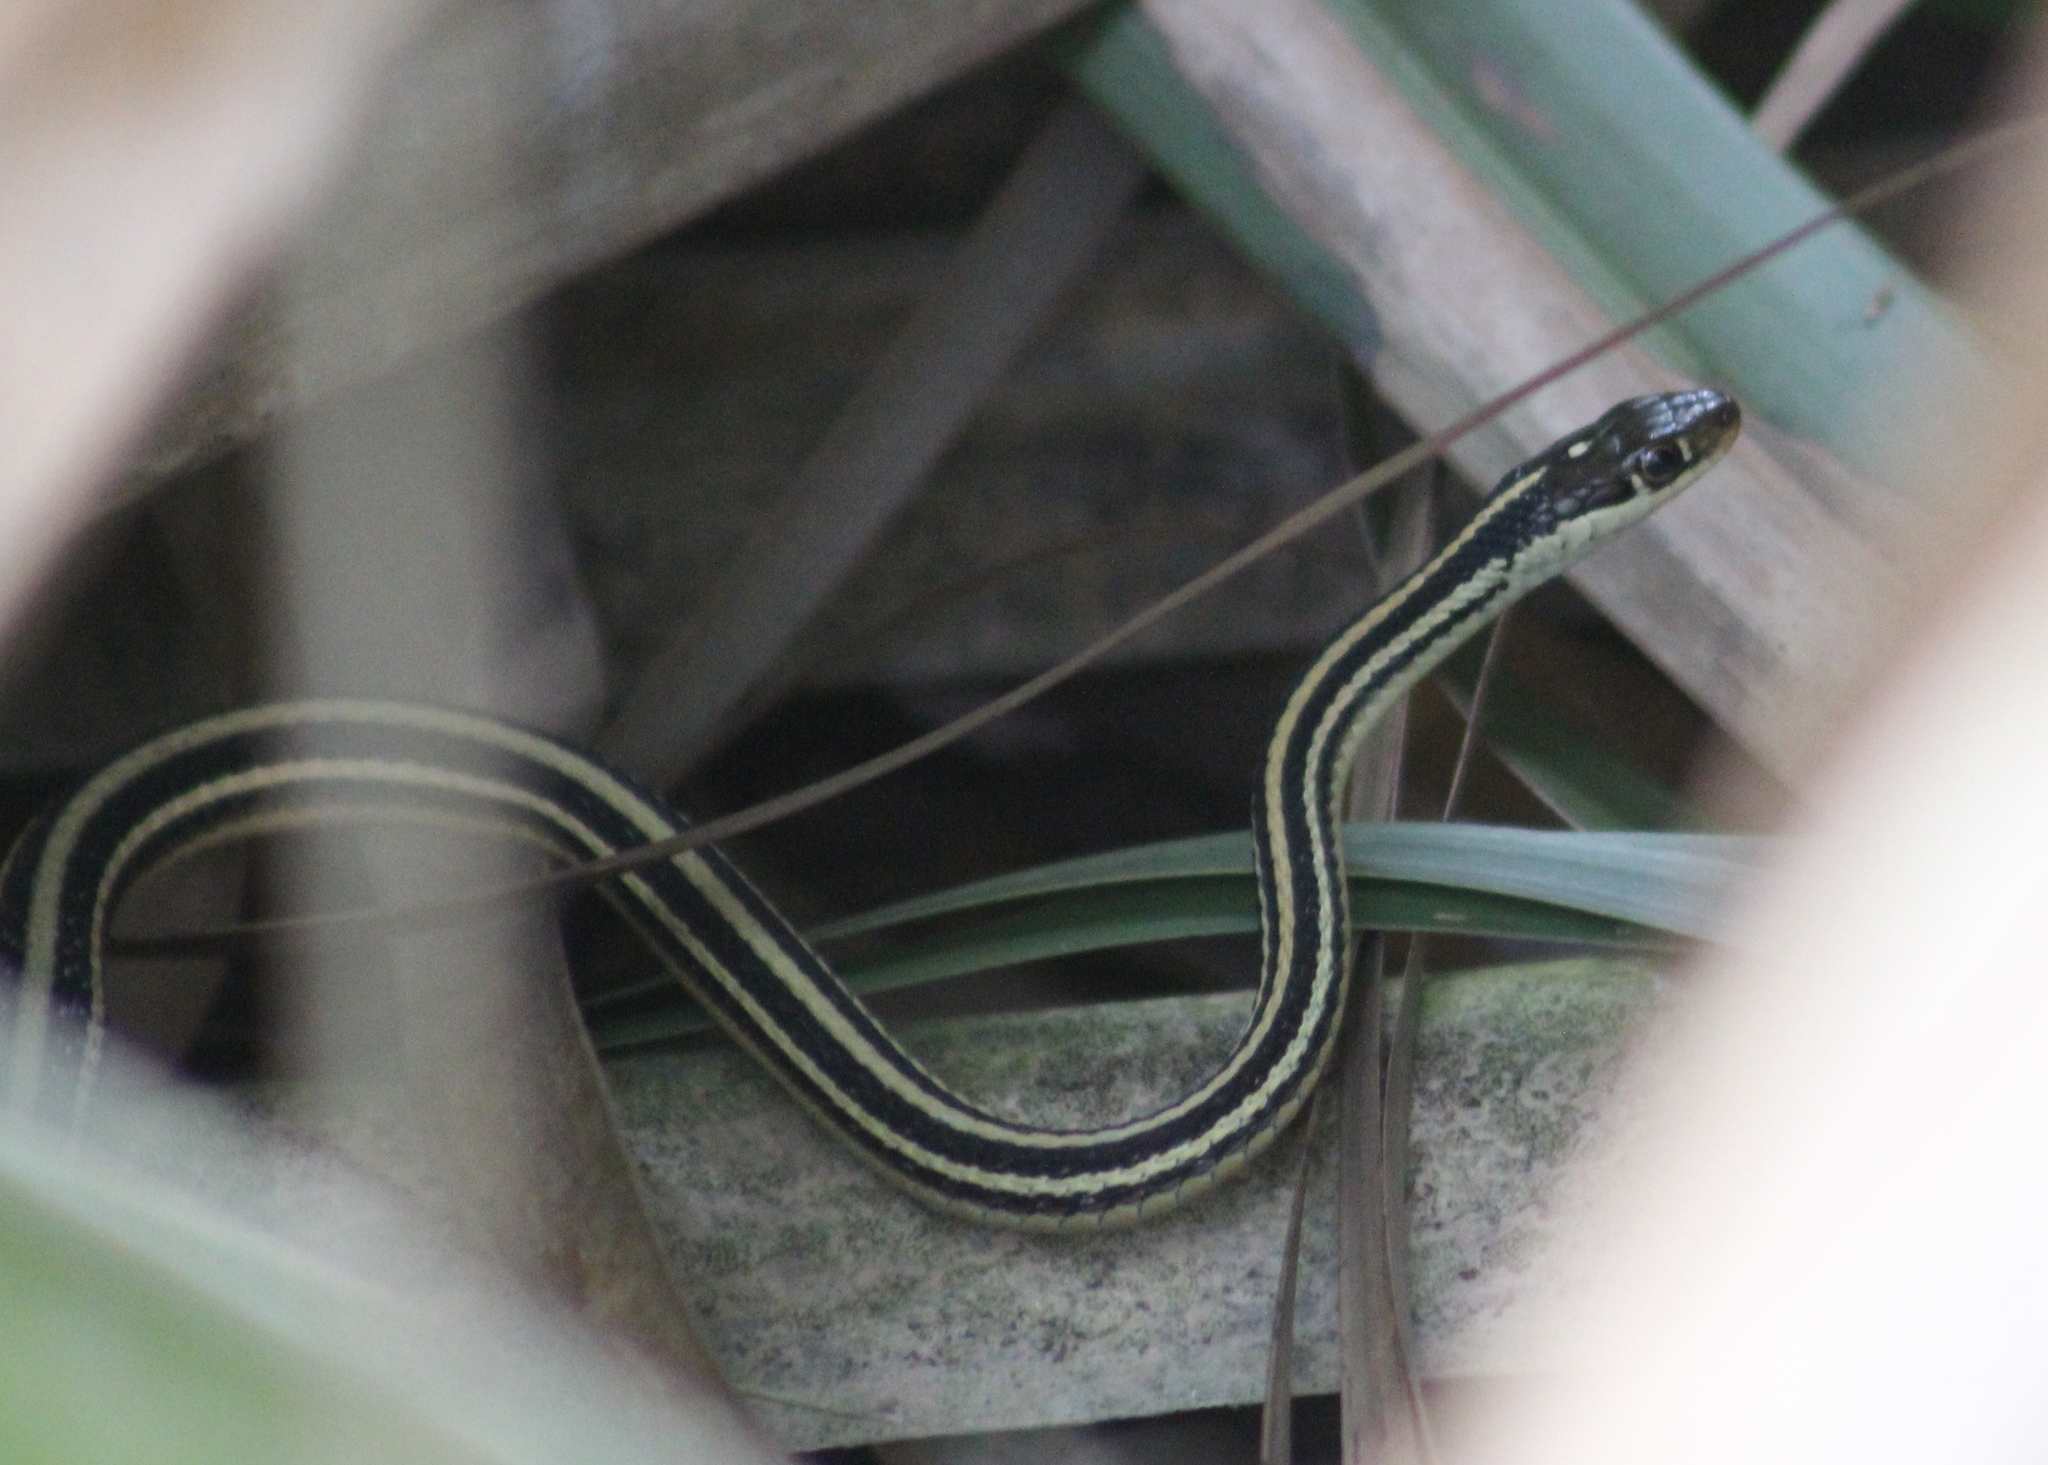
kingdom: Animalia
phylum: Chordata
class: Squamata
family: Colubridae
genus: Thamnophis
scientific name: Thamnophis proximus
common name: Western ribbon snake
